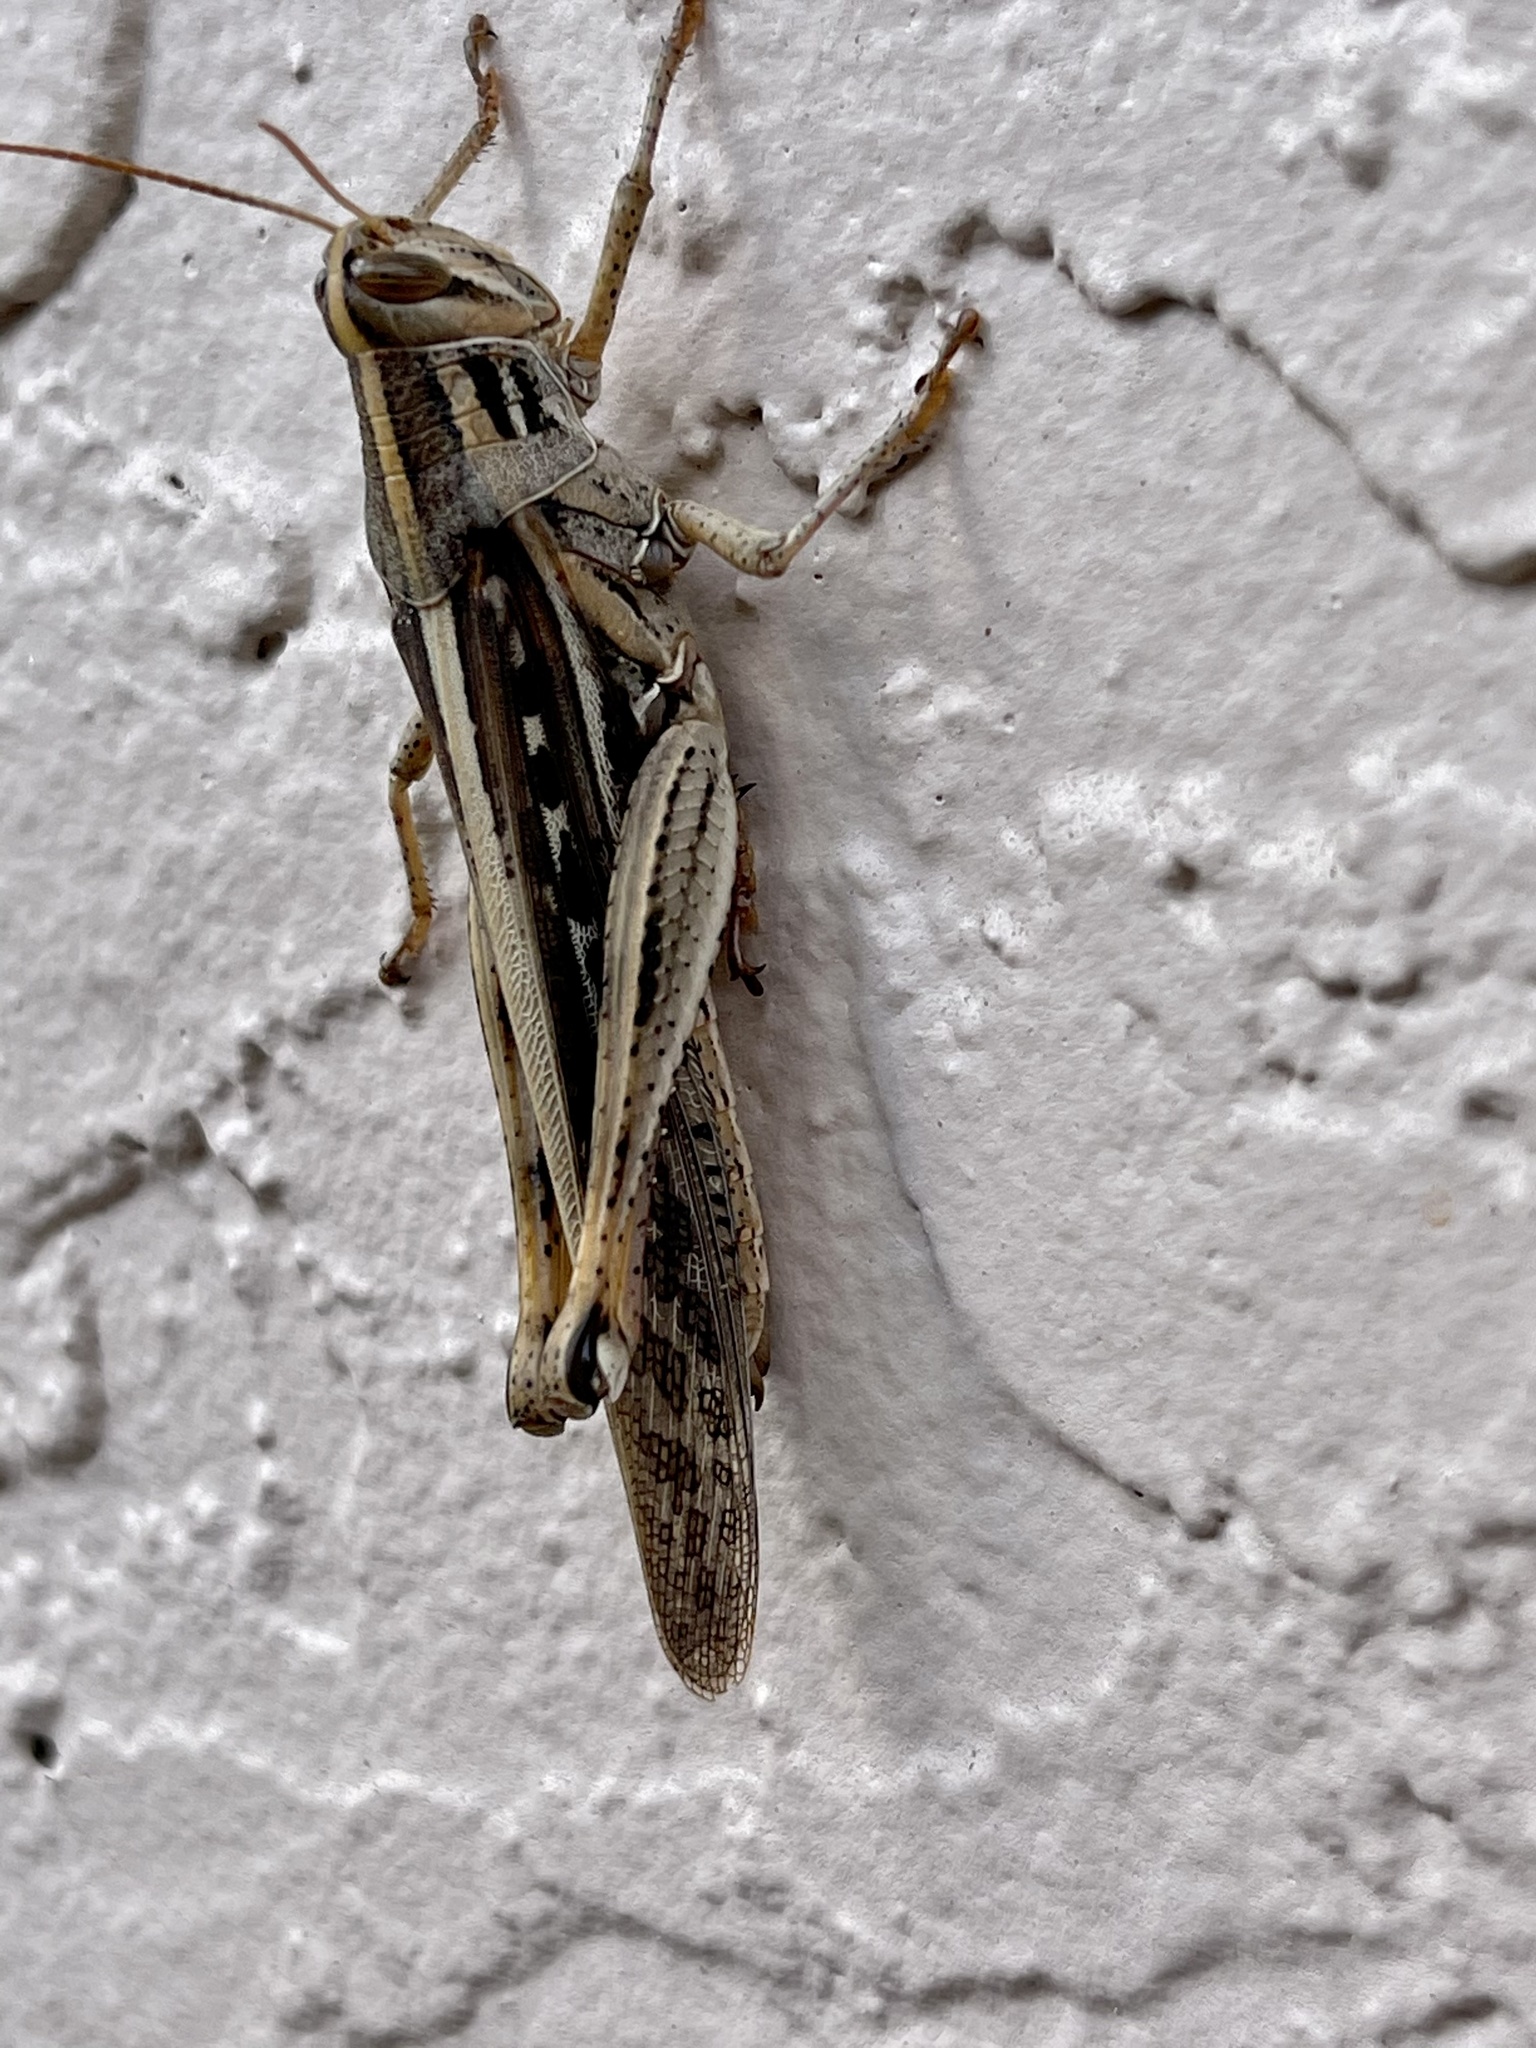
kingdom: Animalia
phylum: Arthropoda
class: Insecta
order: Orthoptera
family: Acrididae
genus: Schistocerca
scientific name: Schistocerca americana
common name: American bird locust
